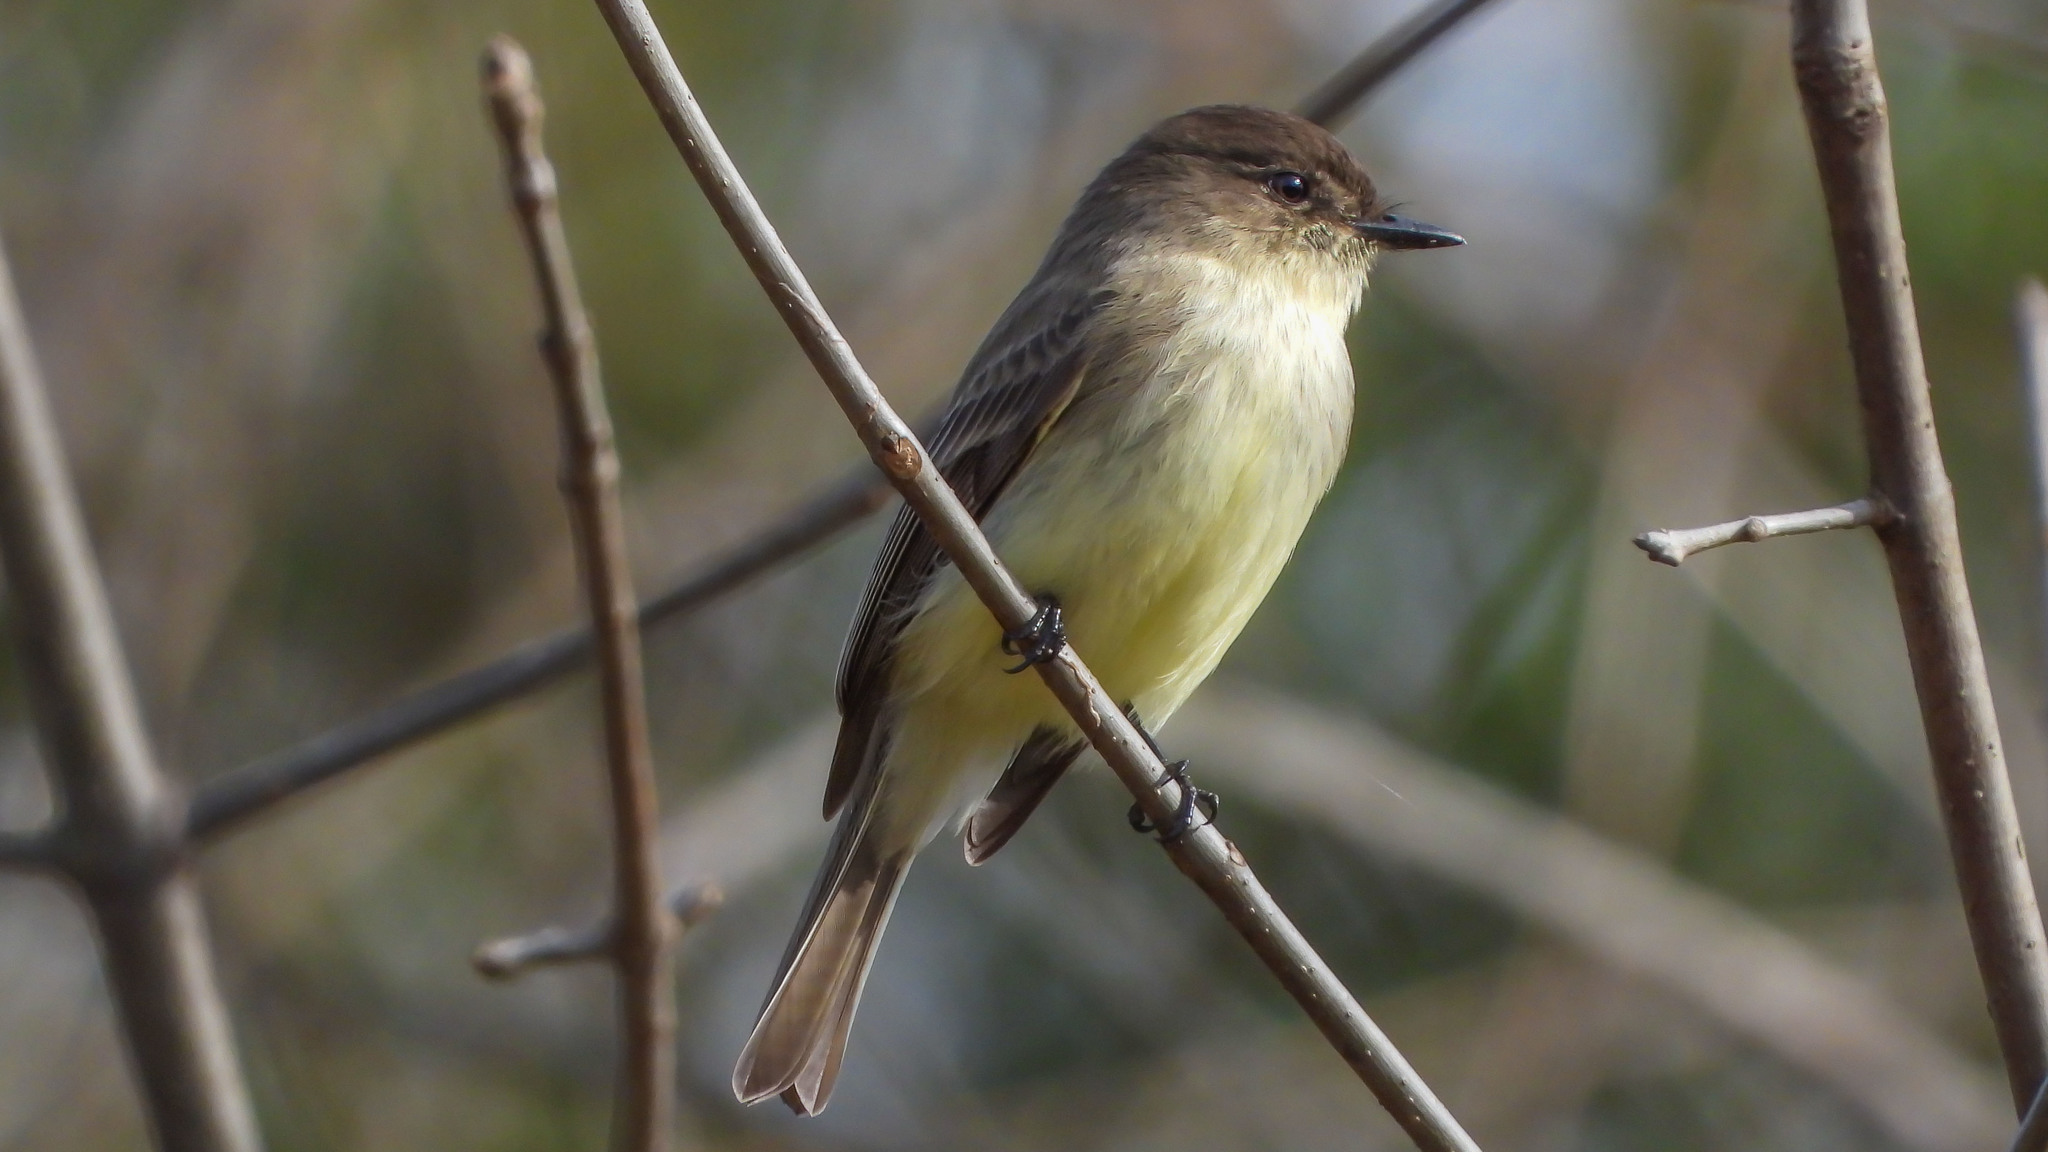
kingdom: Animalia
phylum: Chordata
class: Aves
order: Passeriformes
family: Tyrannidae
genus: Sayornis
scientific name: Sayornis phoebe
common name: Eastern phoebe
